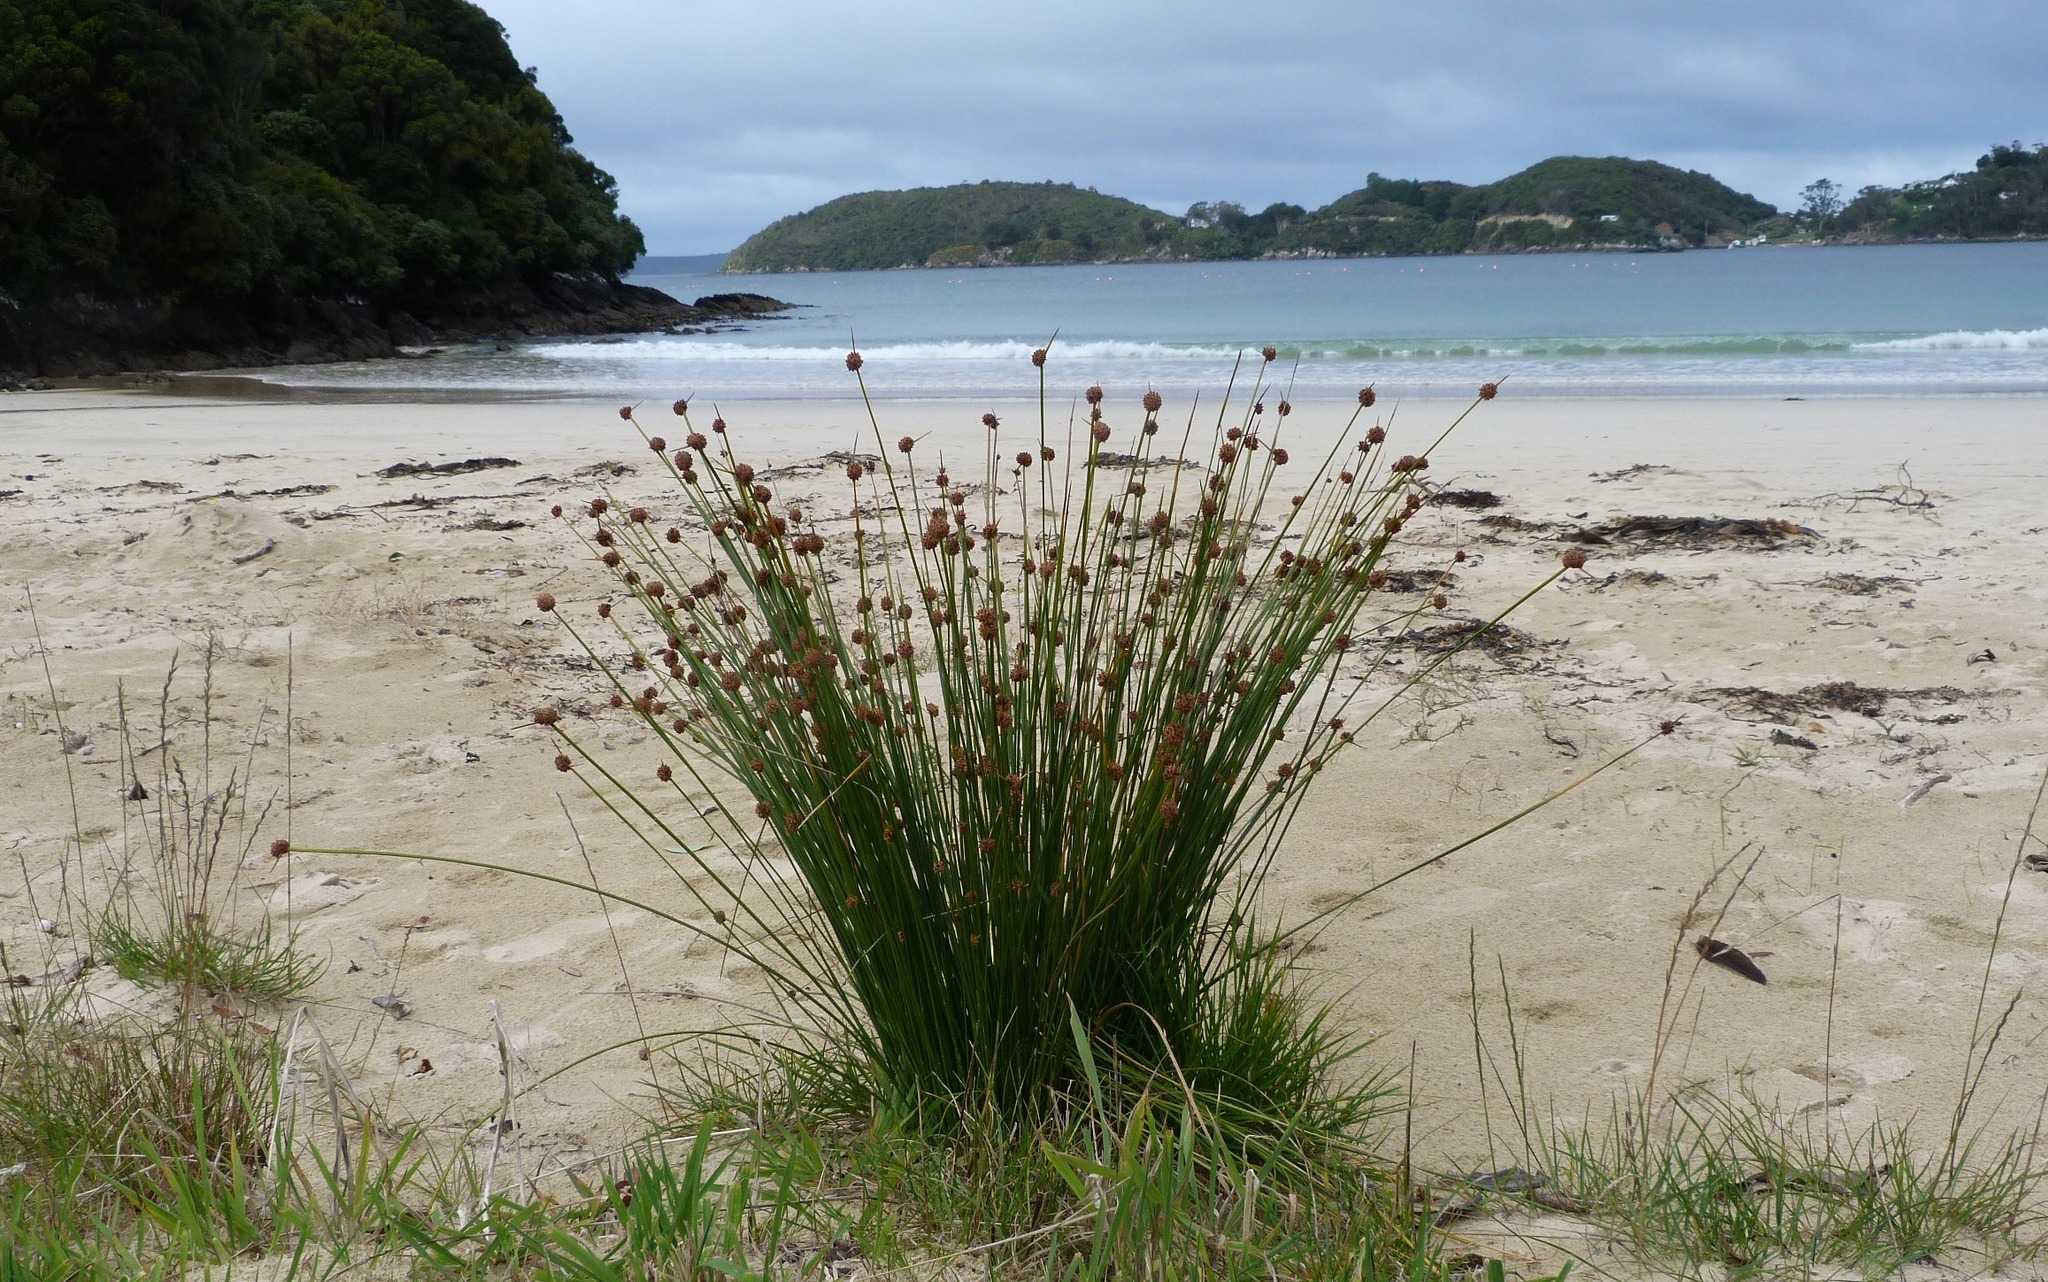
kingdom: Plantae
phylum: Tracheophyta
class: Liliopsida
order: Poales
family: Cyperaceae
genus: Ficinia
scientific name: Ficinia nodosa
